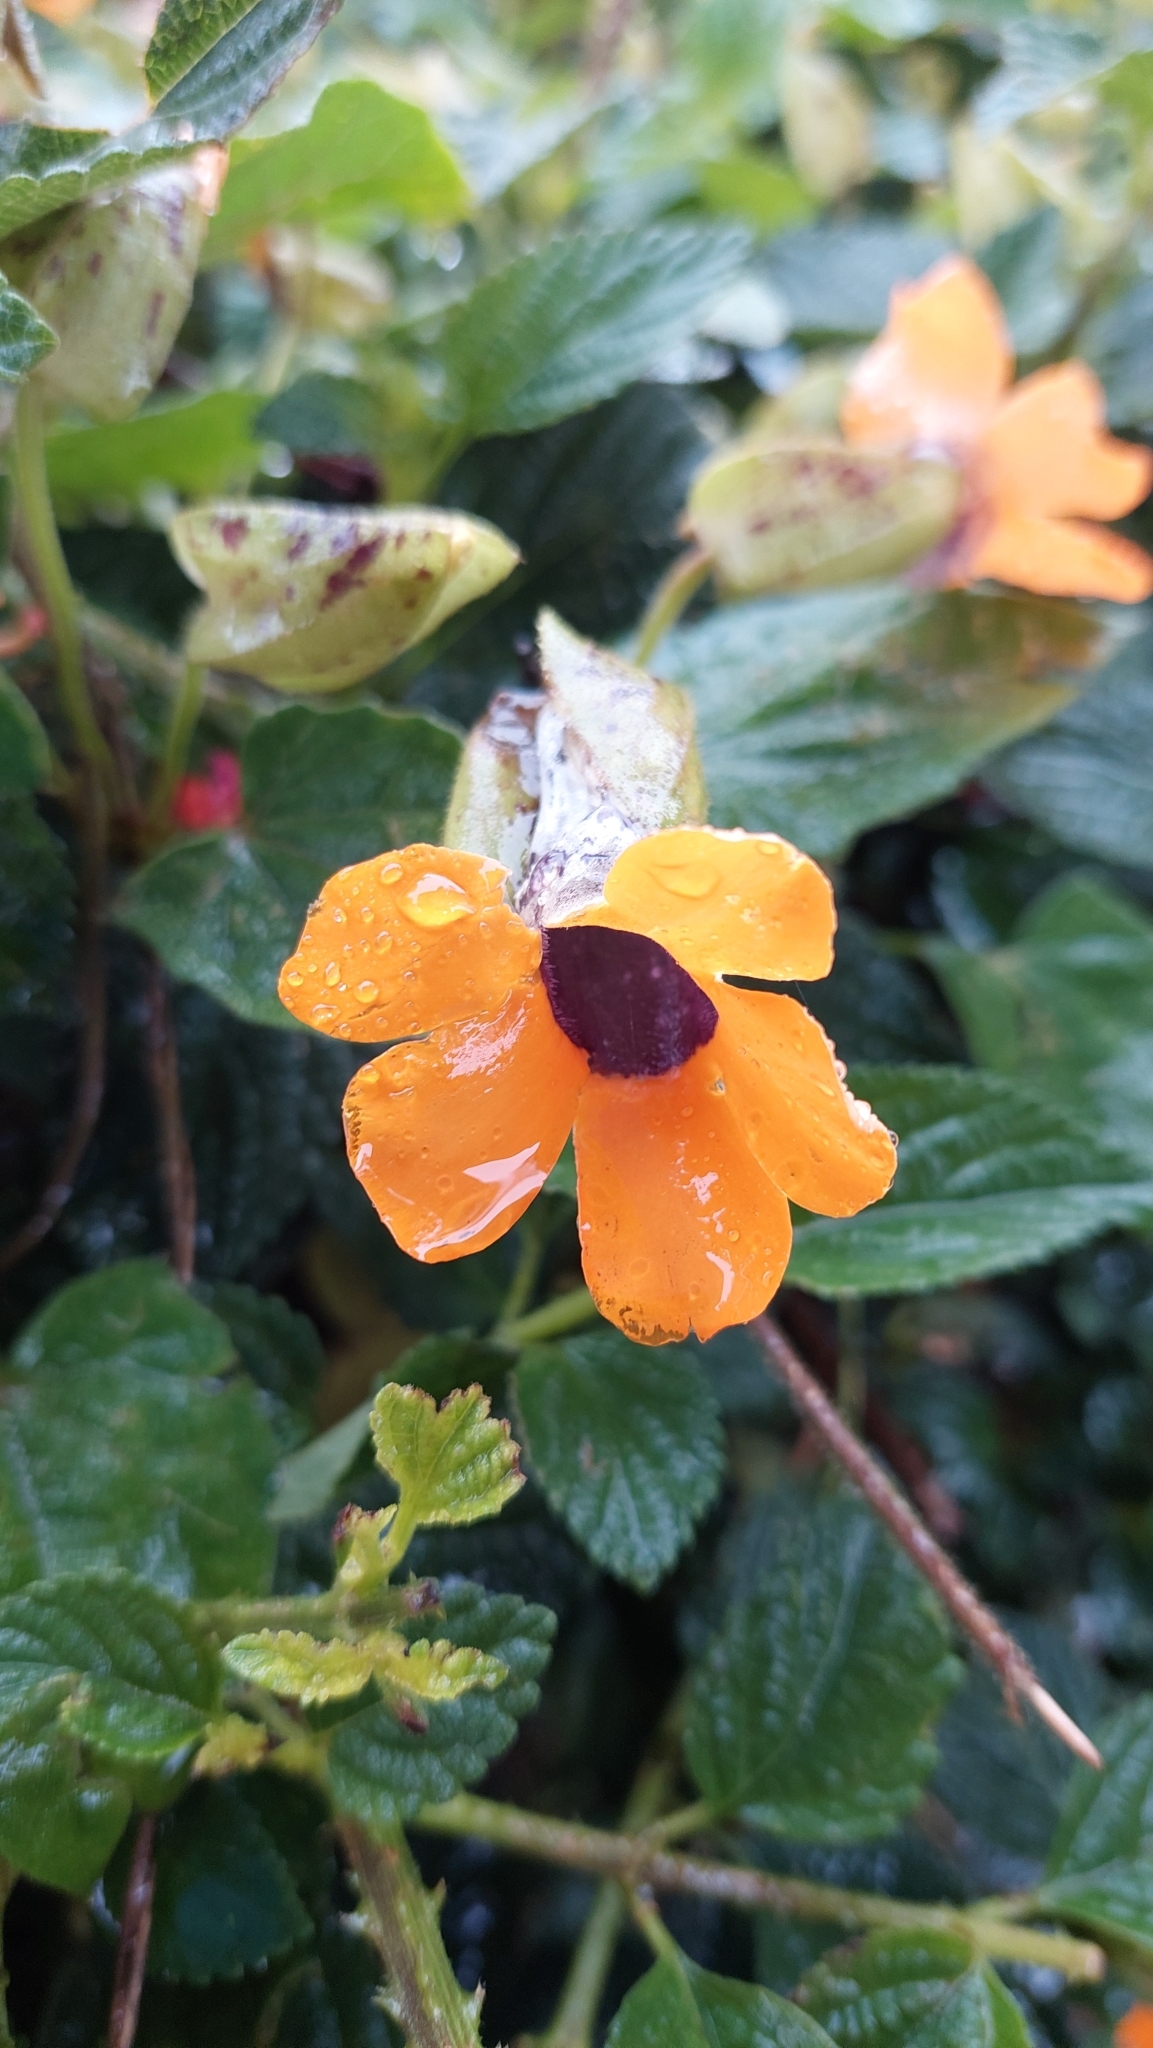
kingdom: Plantae
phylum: Tracheophyta
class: Magnoliopsida
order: Lamiales
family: Acanthaceae
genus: Thunbergia
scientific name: Thunbergia alata
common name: Blackeyed susan vine
